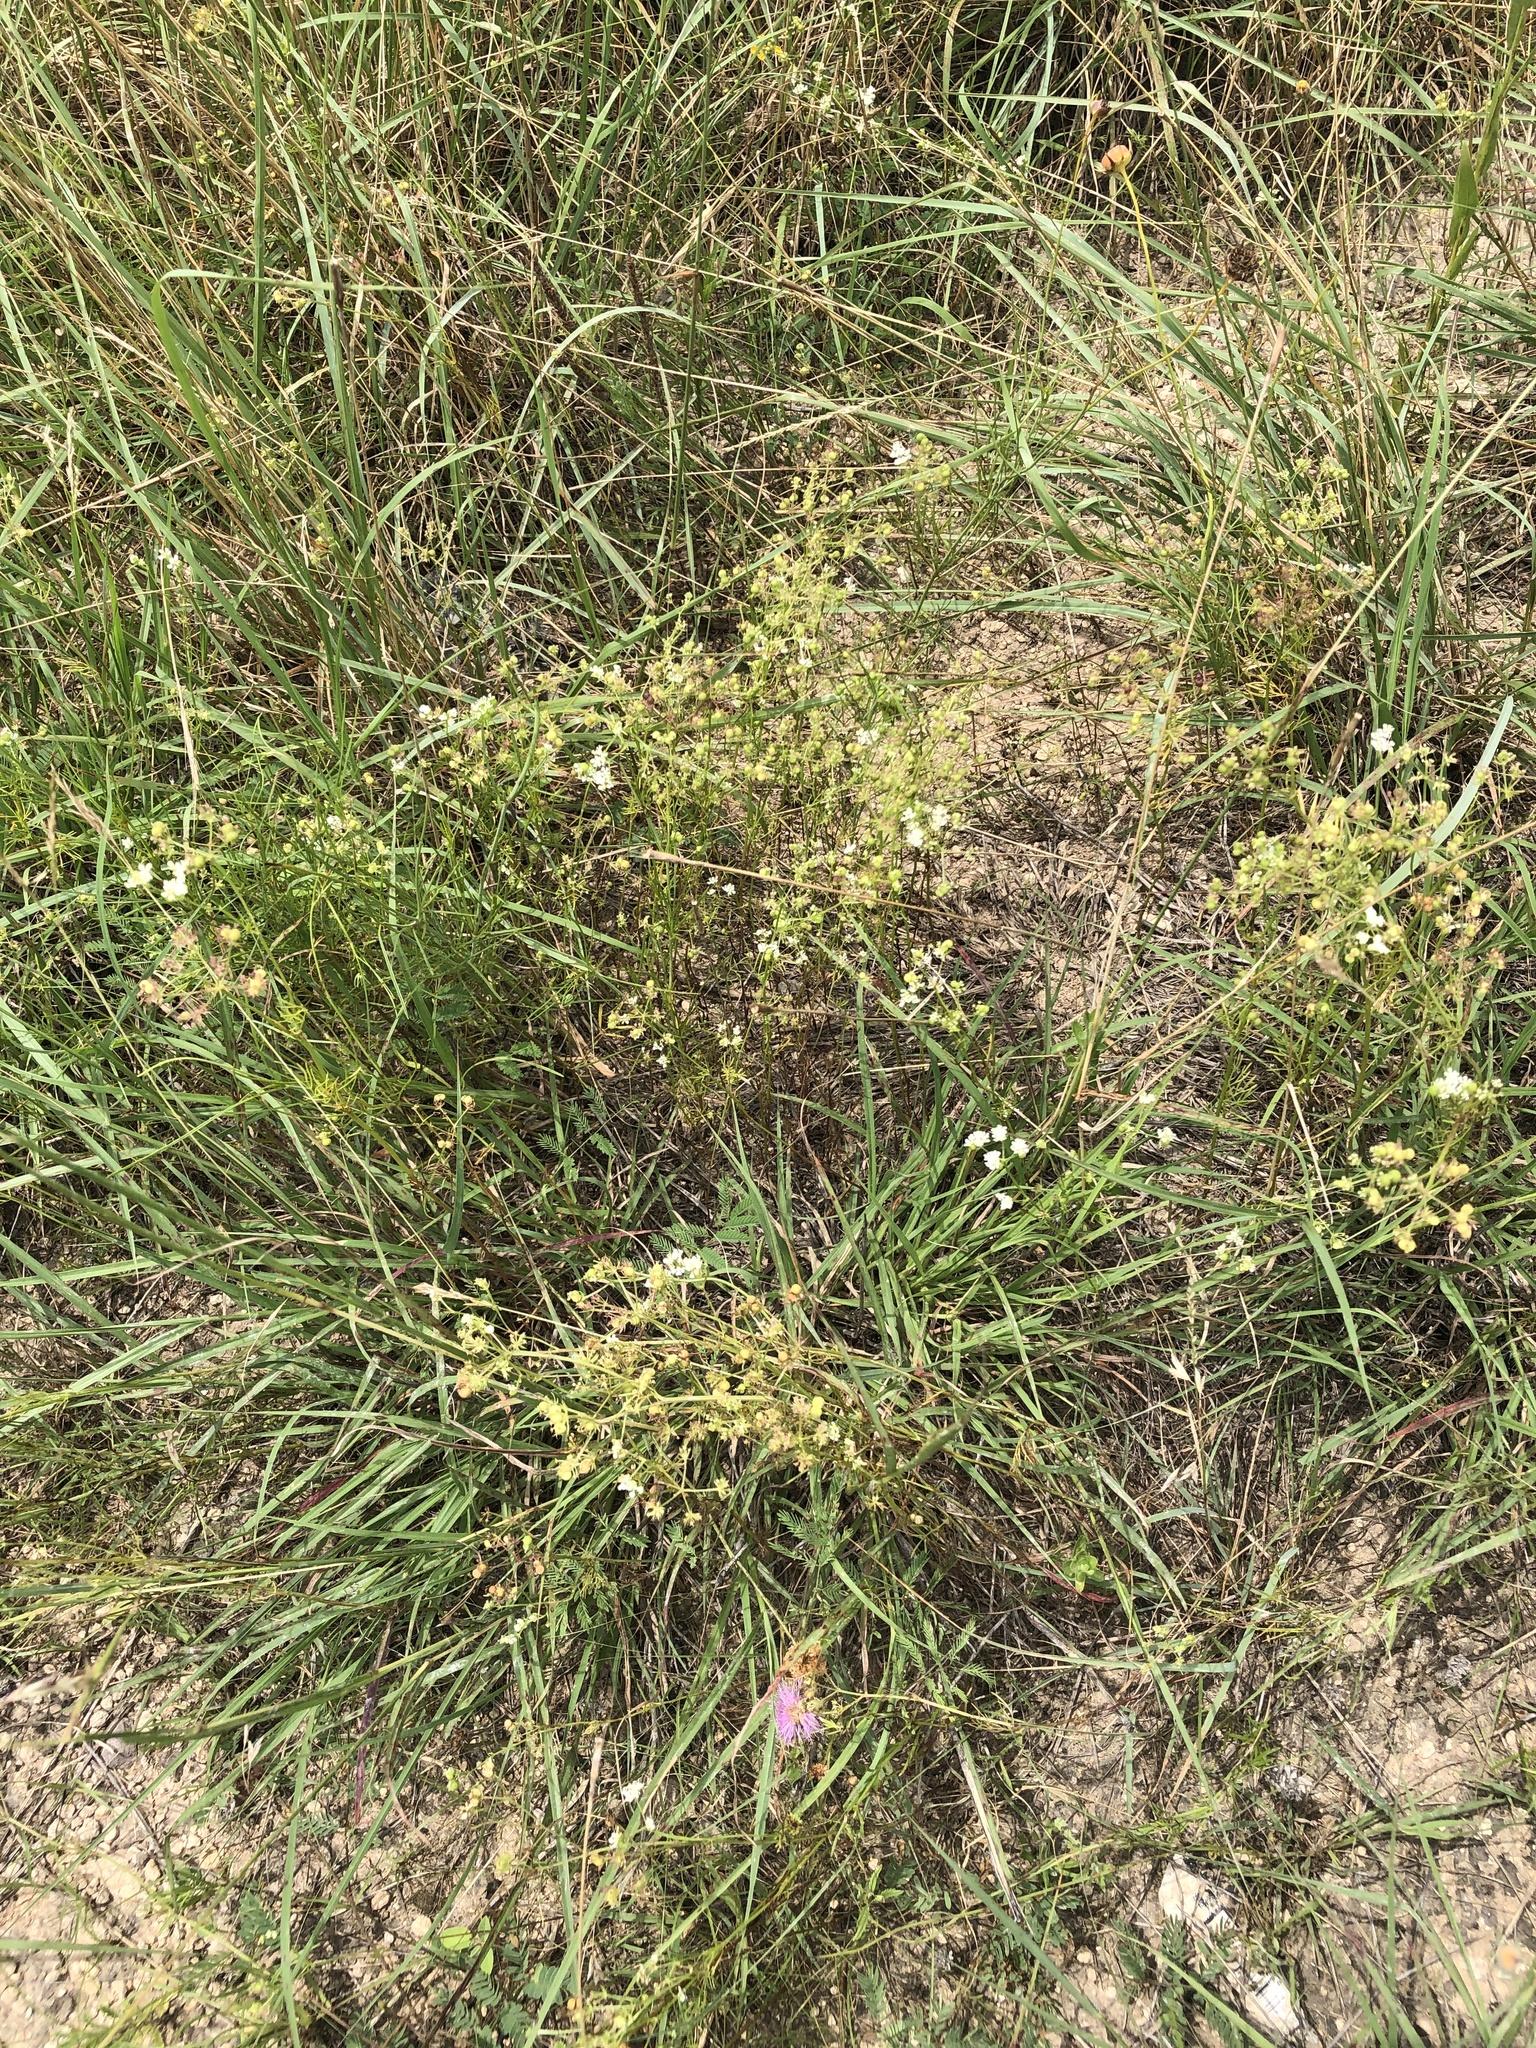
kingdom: Plantae
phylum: Tracheophyta
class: Magnoliopsida
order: Apiales
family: Apiaceae
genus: Atrema
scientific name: Atrema americanum
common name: Prairie-bishop
